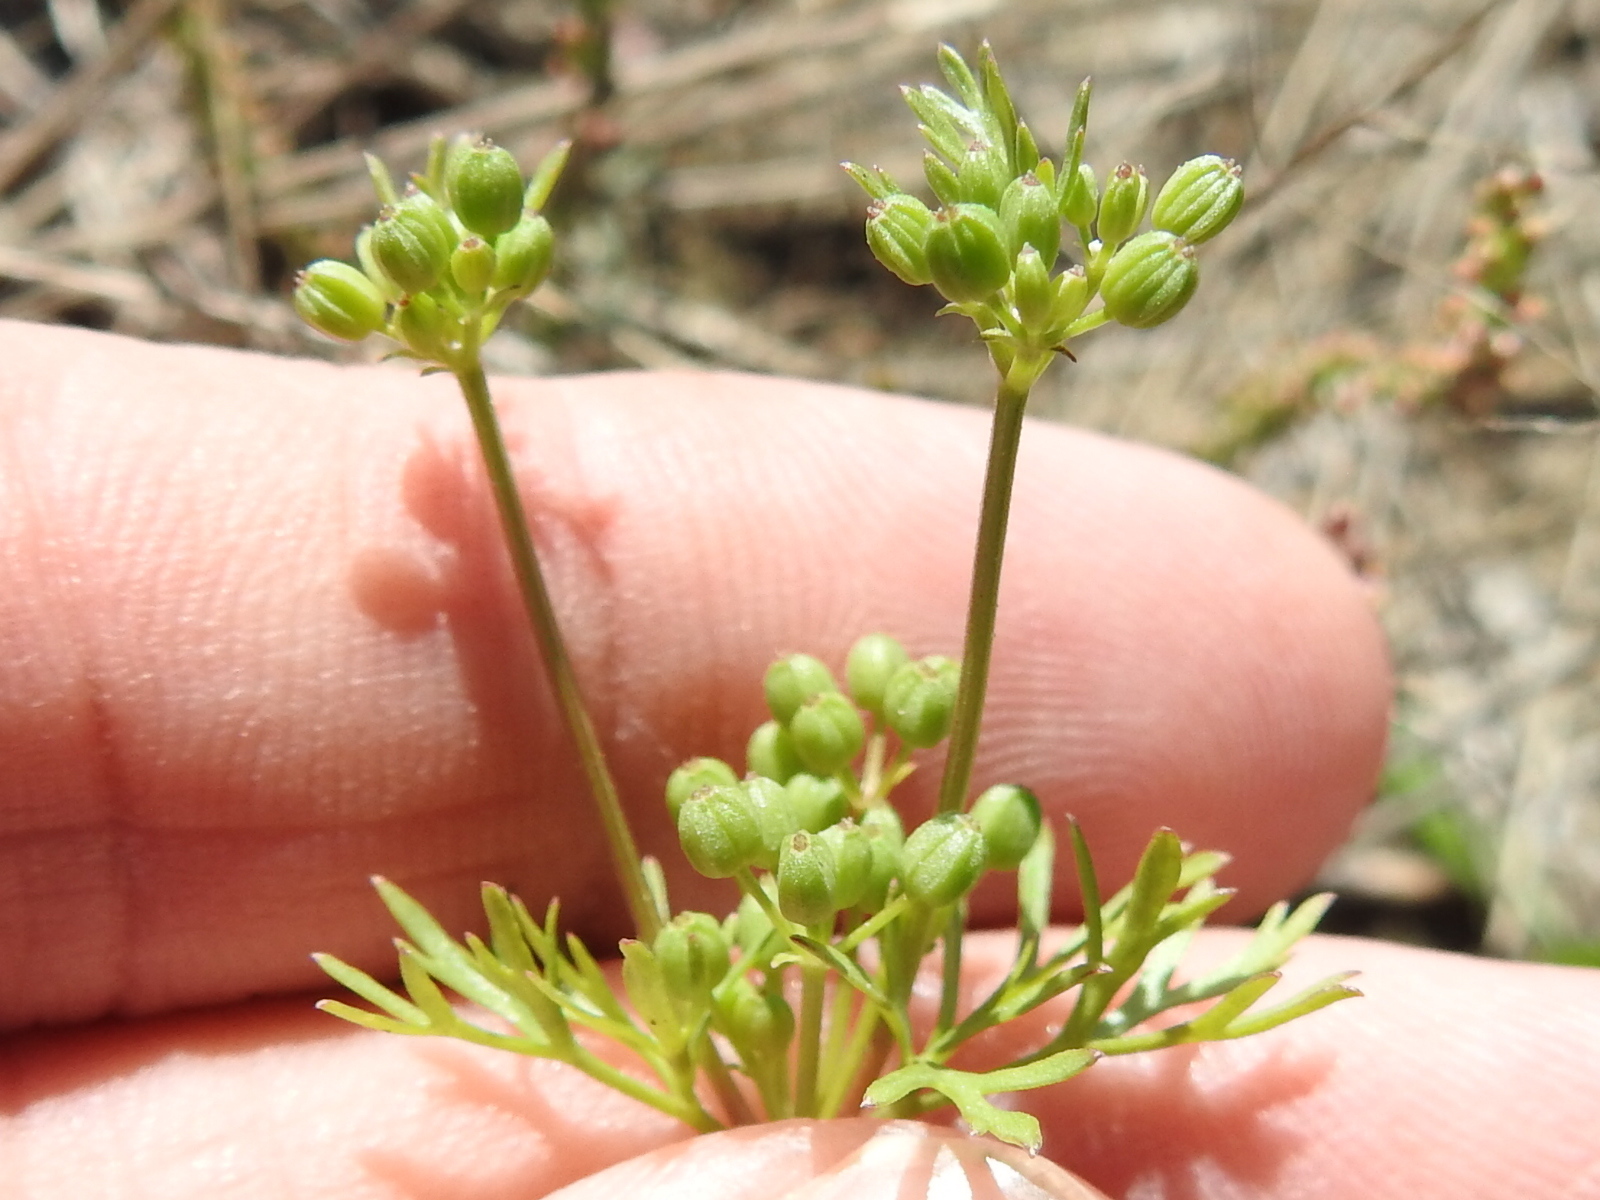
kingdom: Plantae
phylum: Tracheophyta
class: Magnoliopsida
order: Apiales
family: Apiaceae
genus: Ammoselinum
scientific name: Ammoselinum popei
